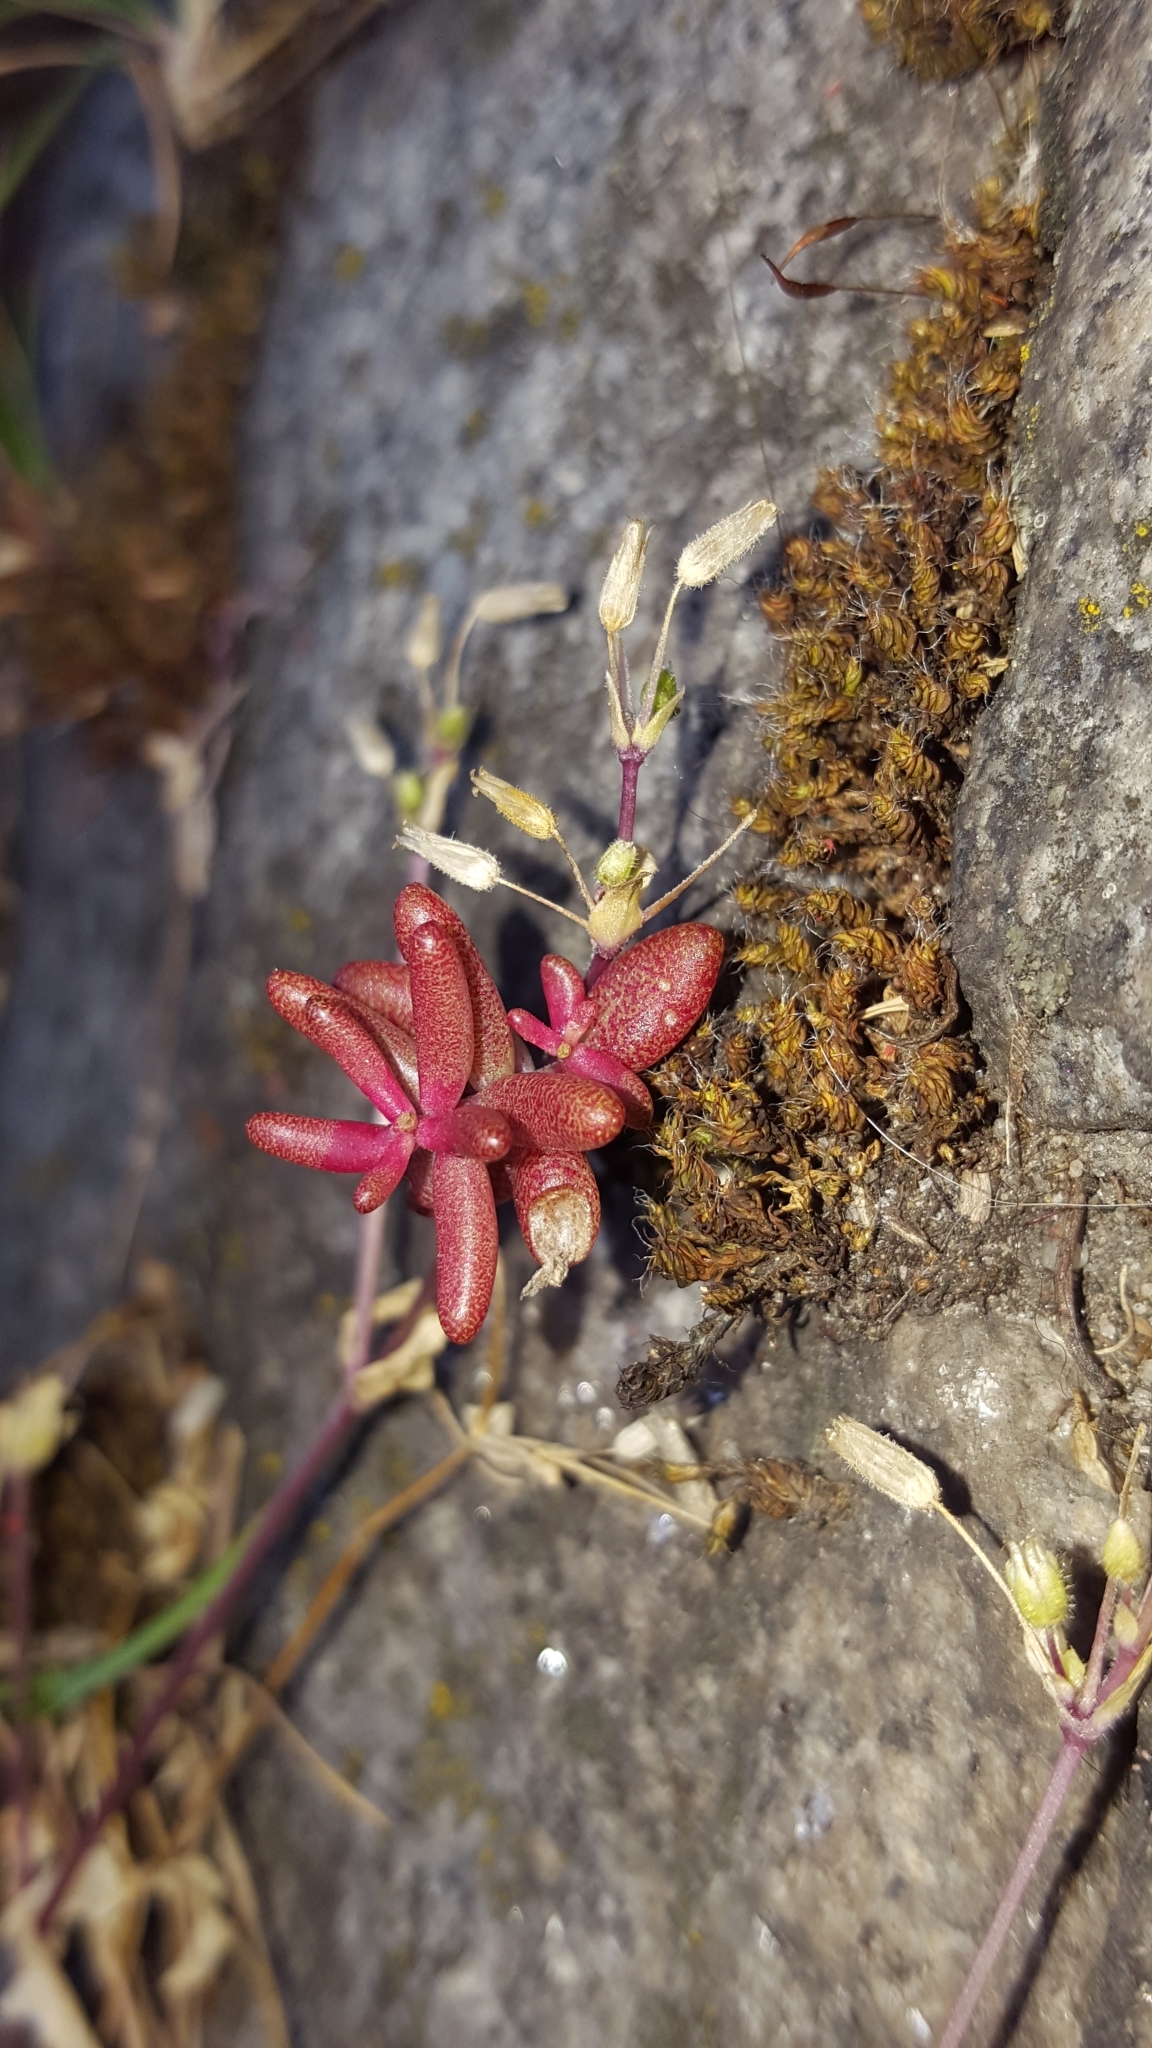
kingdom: Plantae
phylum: Tracheophyta
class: Magnoliopsida
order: Saxifragales
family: Crassulaceae
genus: Sedum
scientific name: Sedum album
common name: White stonecrop
